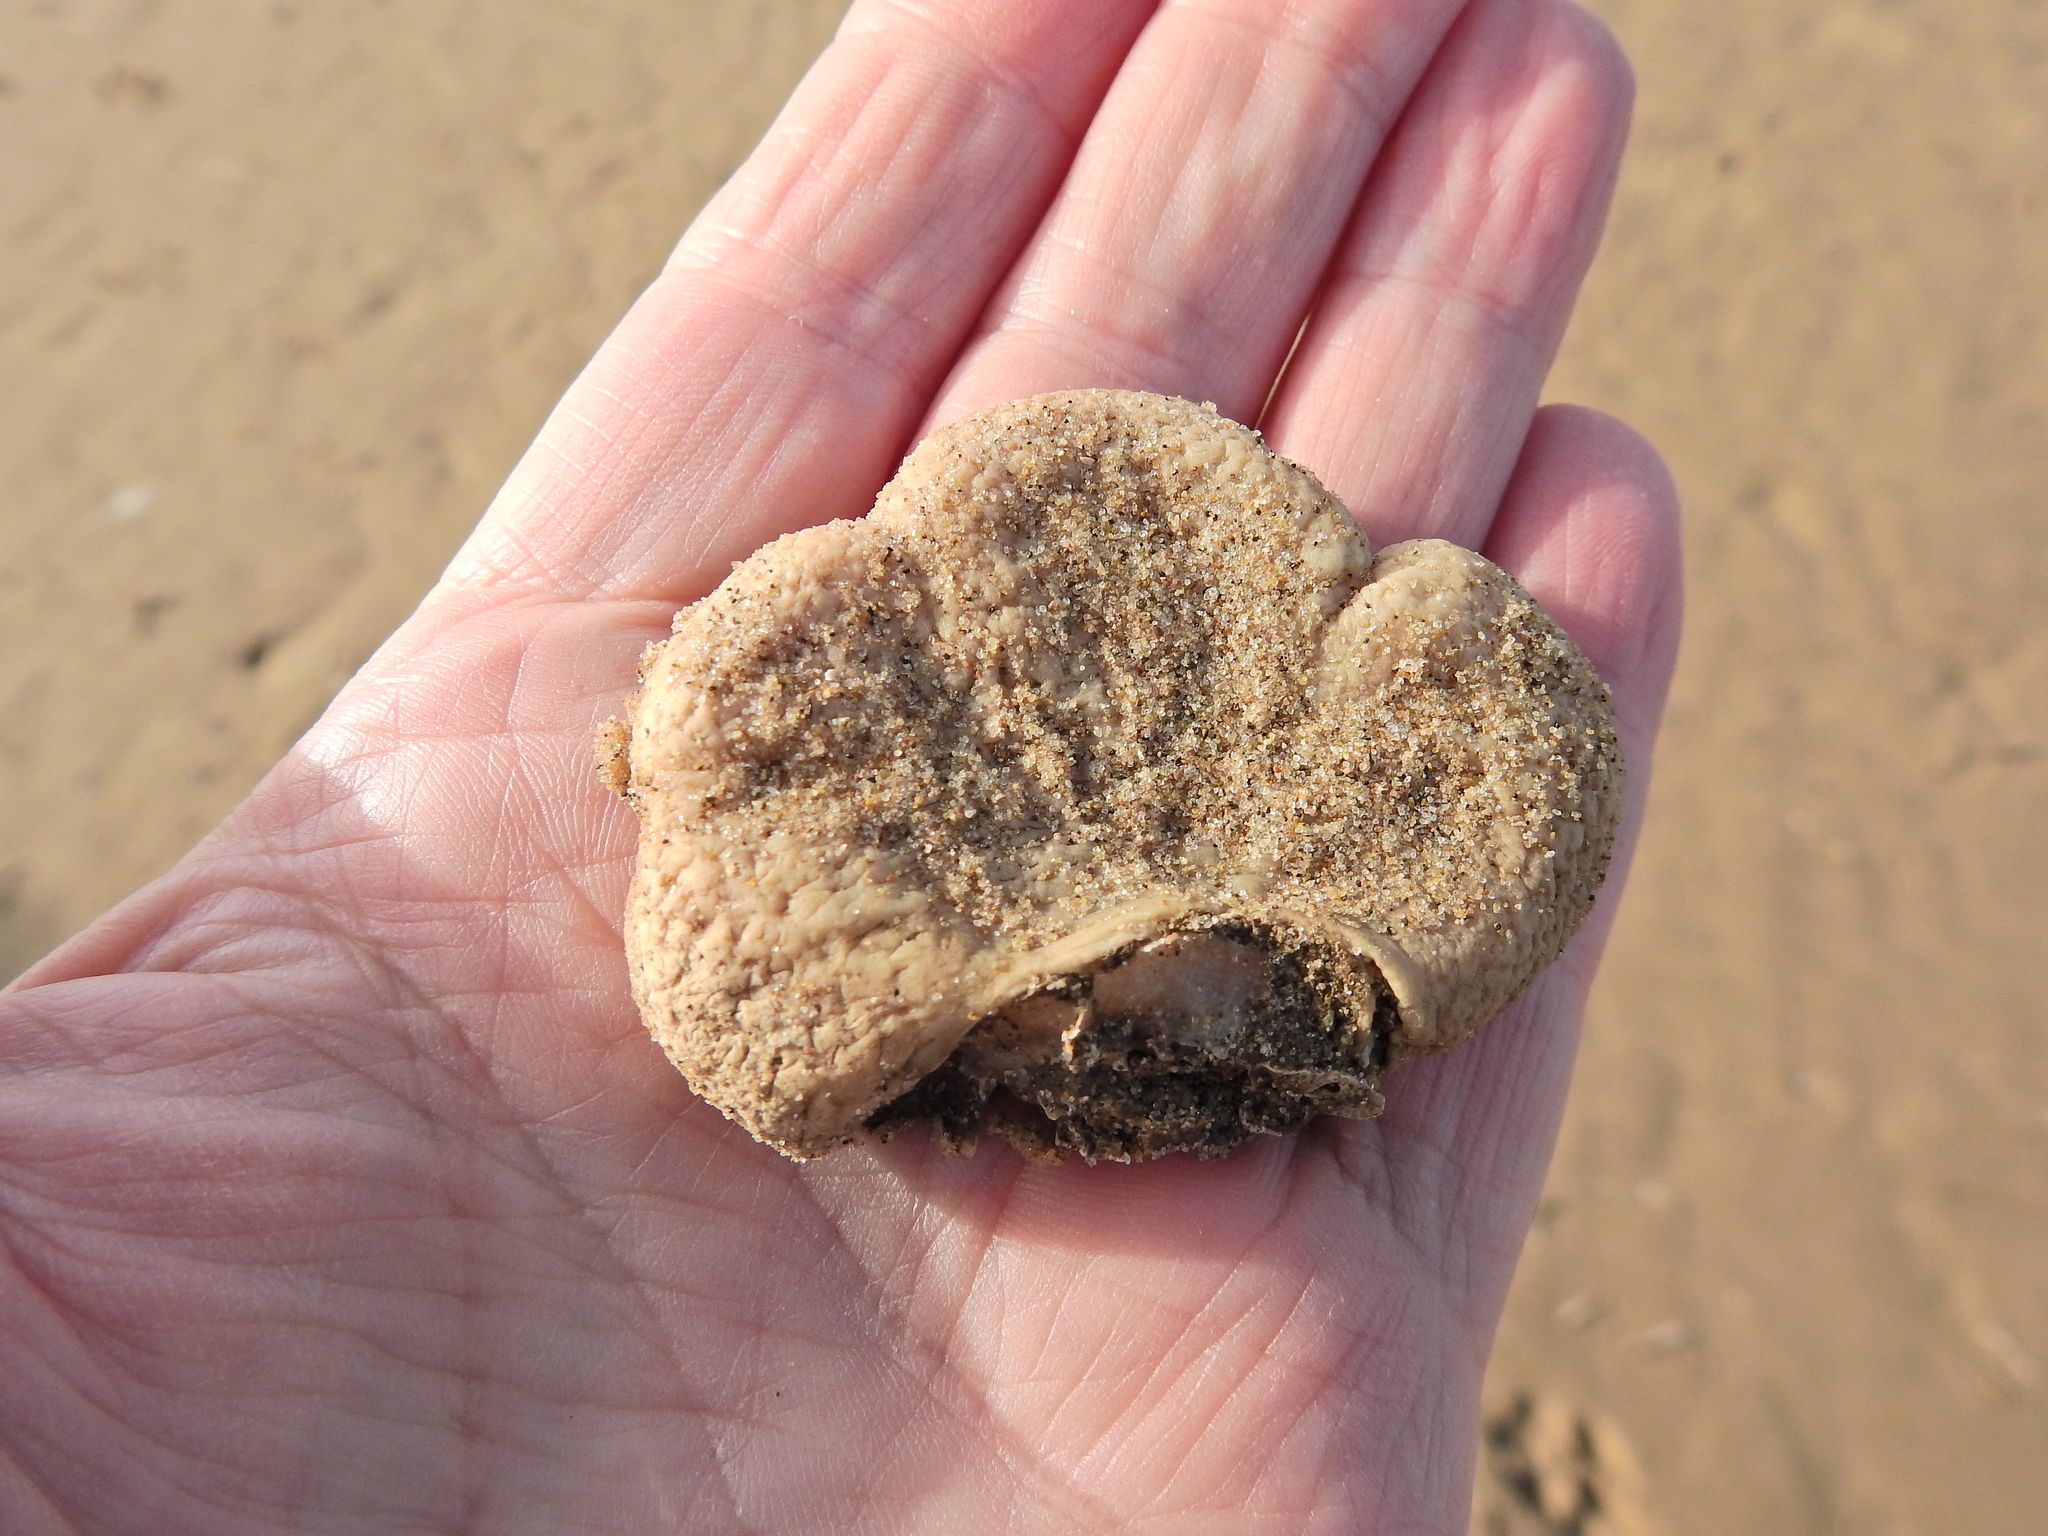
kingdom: Animalia
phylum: Cnidaria
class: Anthozoa
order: Malacalcyonacea
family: Alcyoniidae
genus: Alcyonium
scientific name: Alcyonium digitatum
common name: Dead man's fingers
